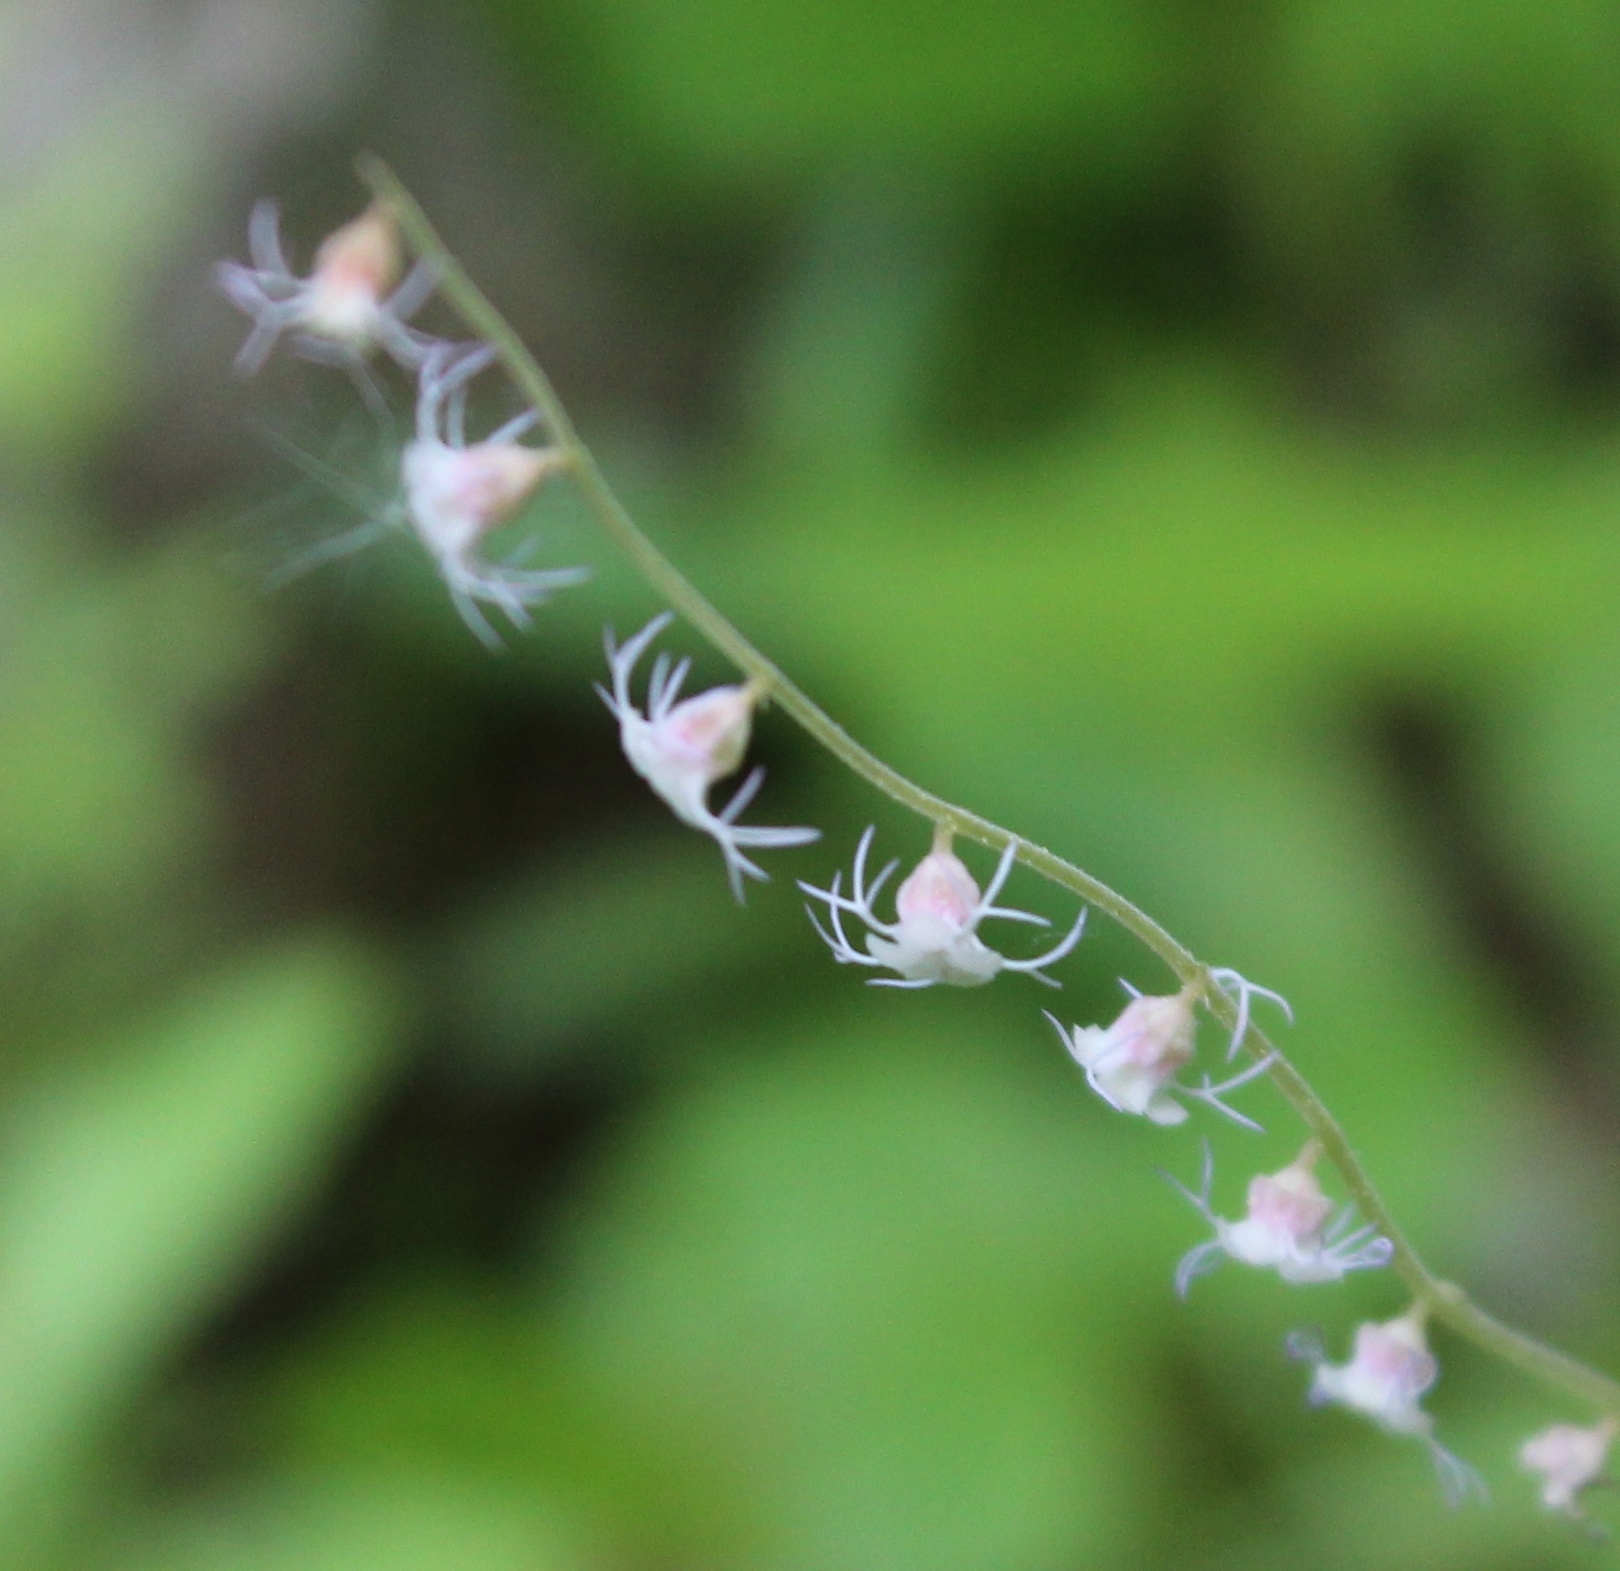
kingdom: Plantae
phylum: Tracheophyta
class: Magnoliopsida
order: Saxifragales
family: Saxifragaceae
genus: Ozomelis
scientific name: Ozomelis stauropetala
